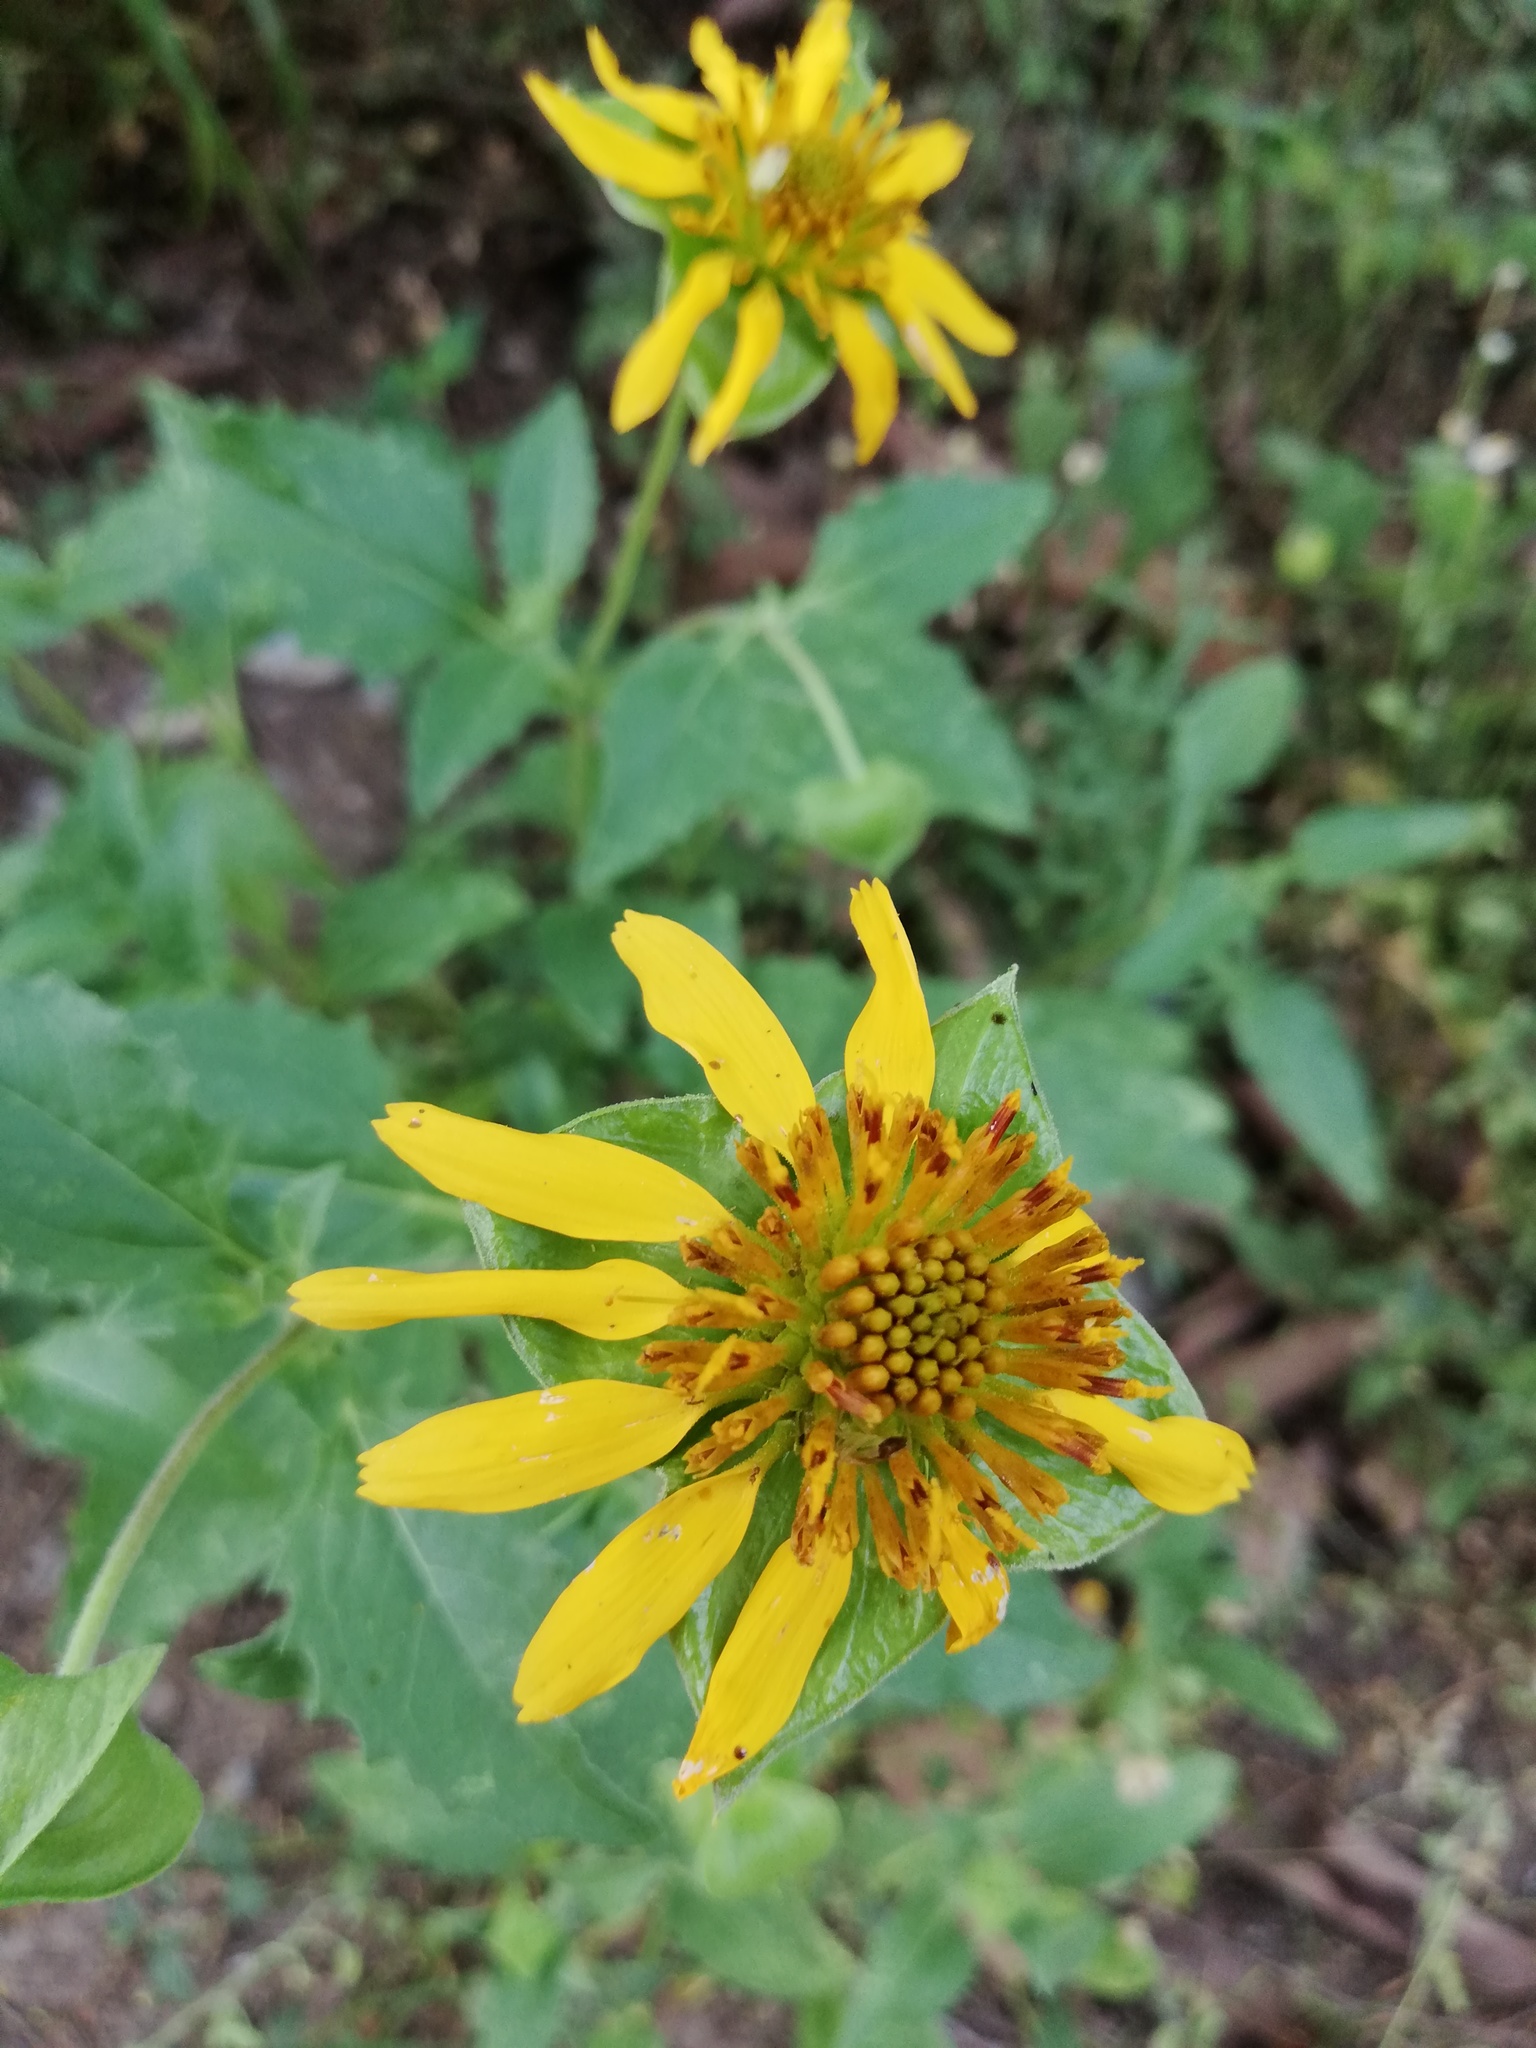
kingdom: Plantae
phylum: Tracheophyta
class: Magnoliopsida
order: Asterales
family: Asteraceae
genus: Tetragonotheca
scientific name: Tetragonotheca texana
